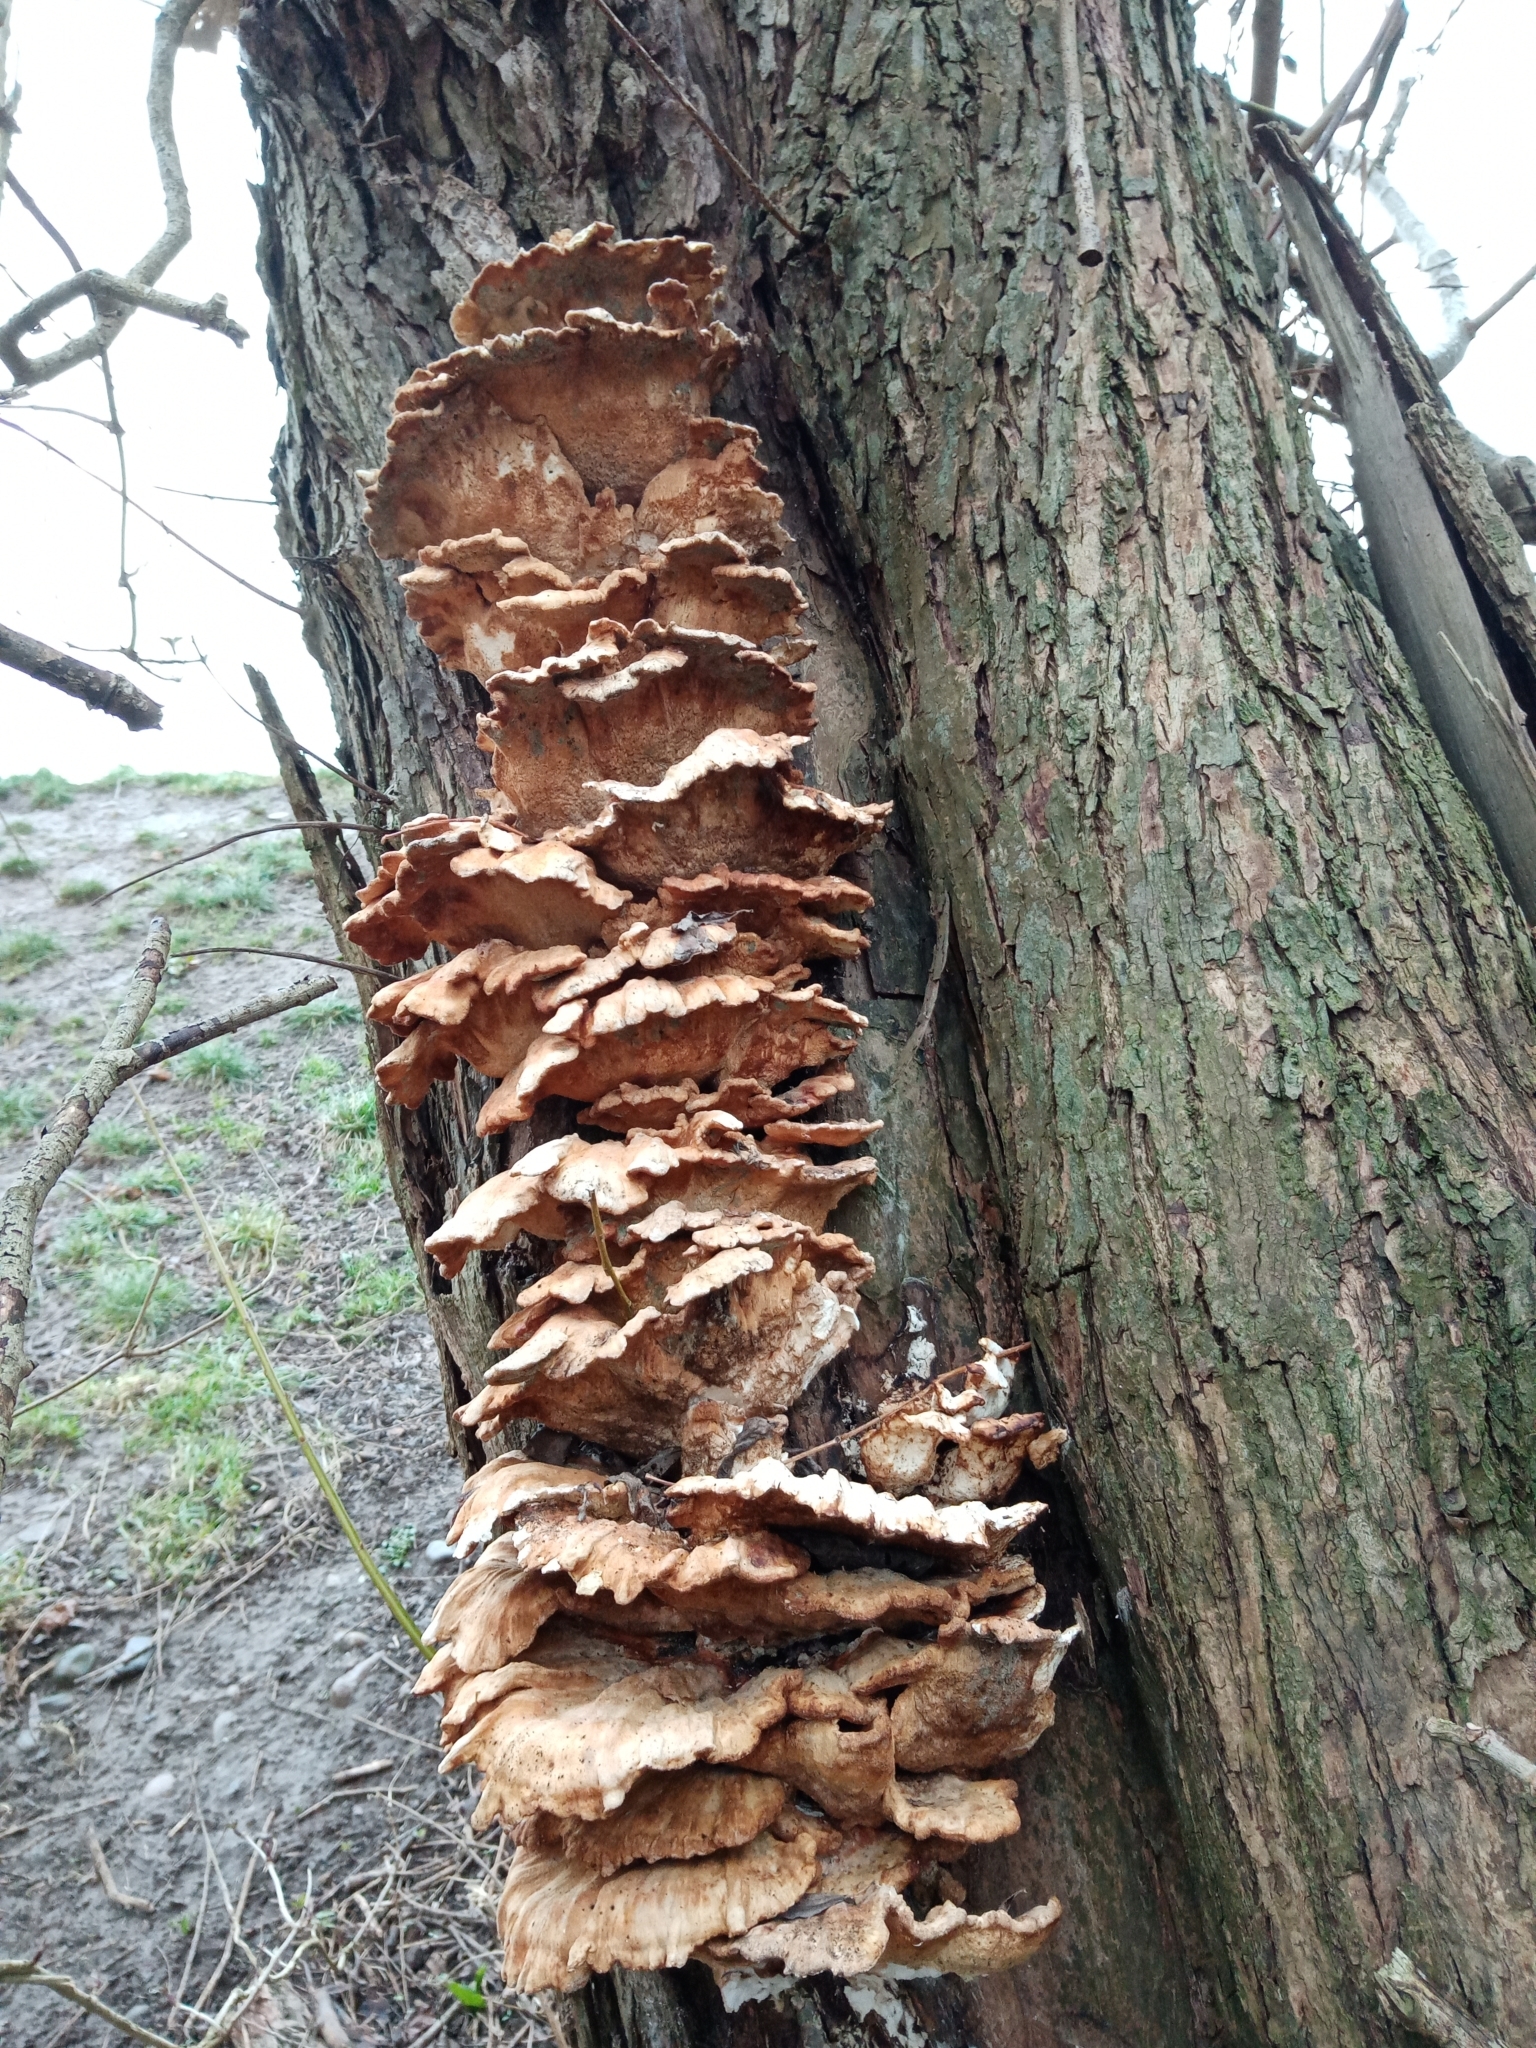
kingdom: Fungi
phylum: Basidiomycota
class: Agaricomycetes
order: Polyporales
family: Laetiporaceae
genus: Laetiporus
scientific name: Laetiporus sulphureus
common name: Chicken of the woods
